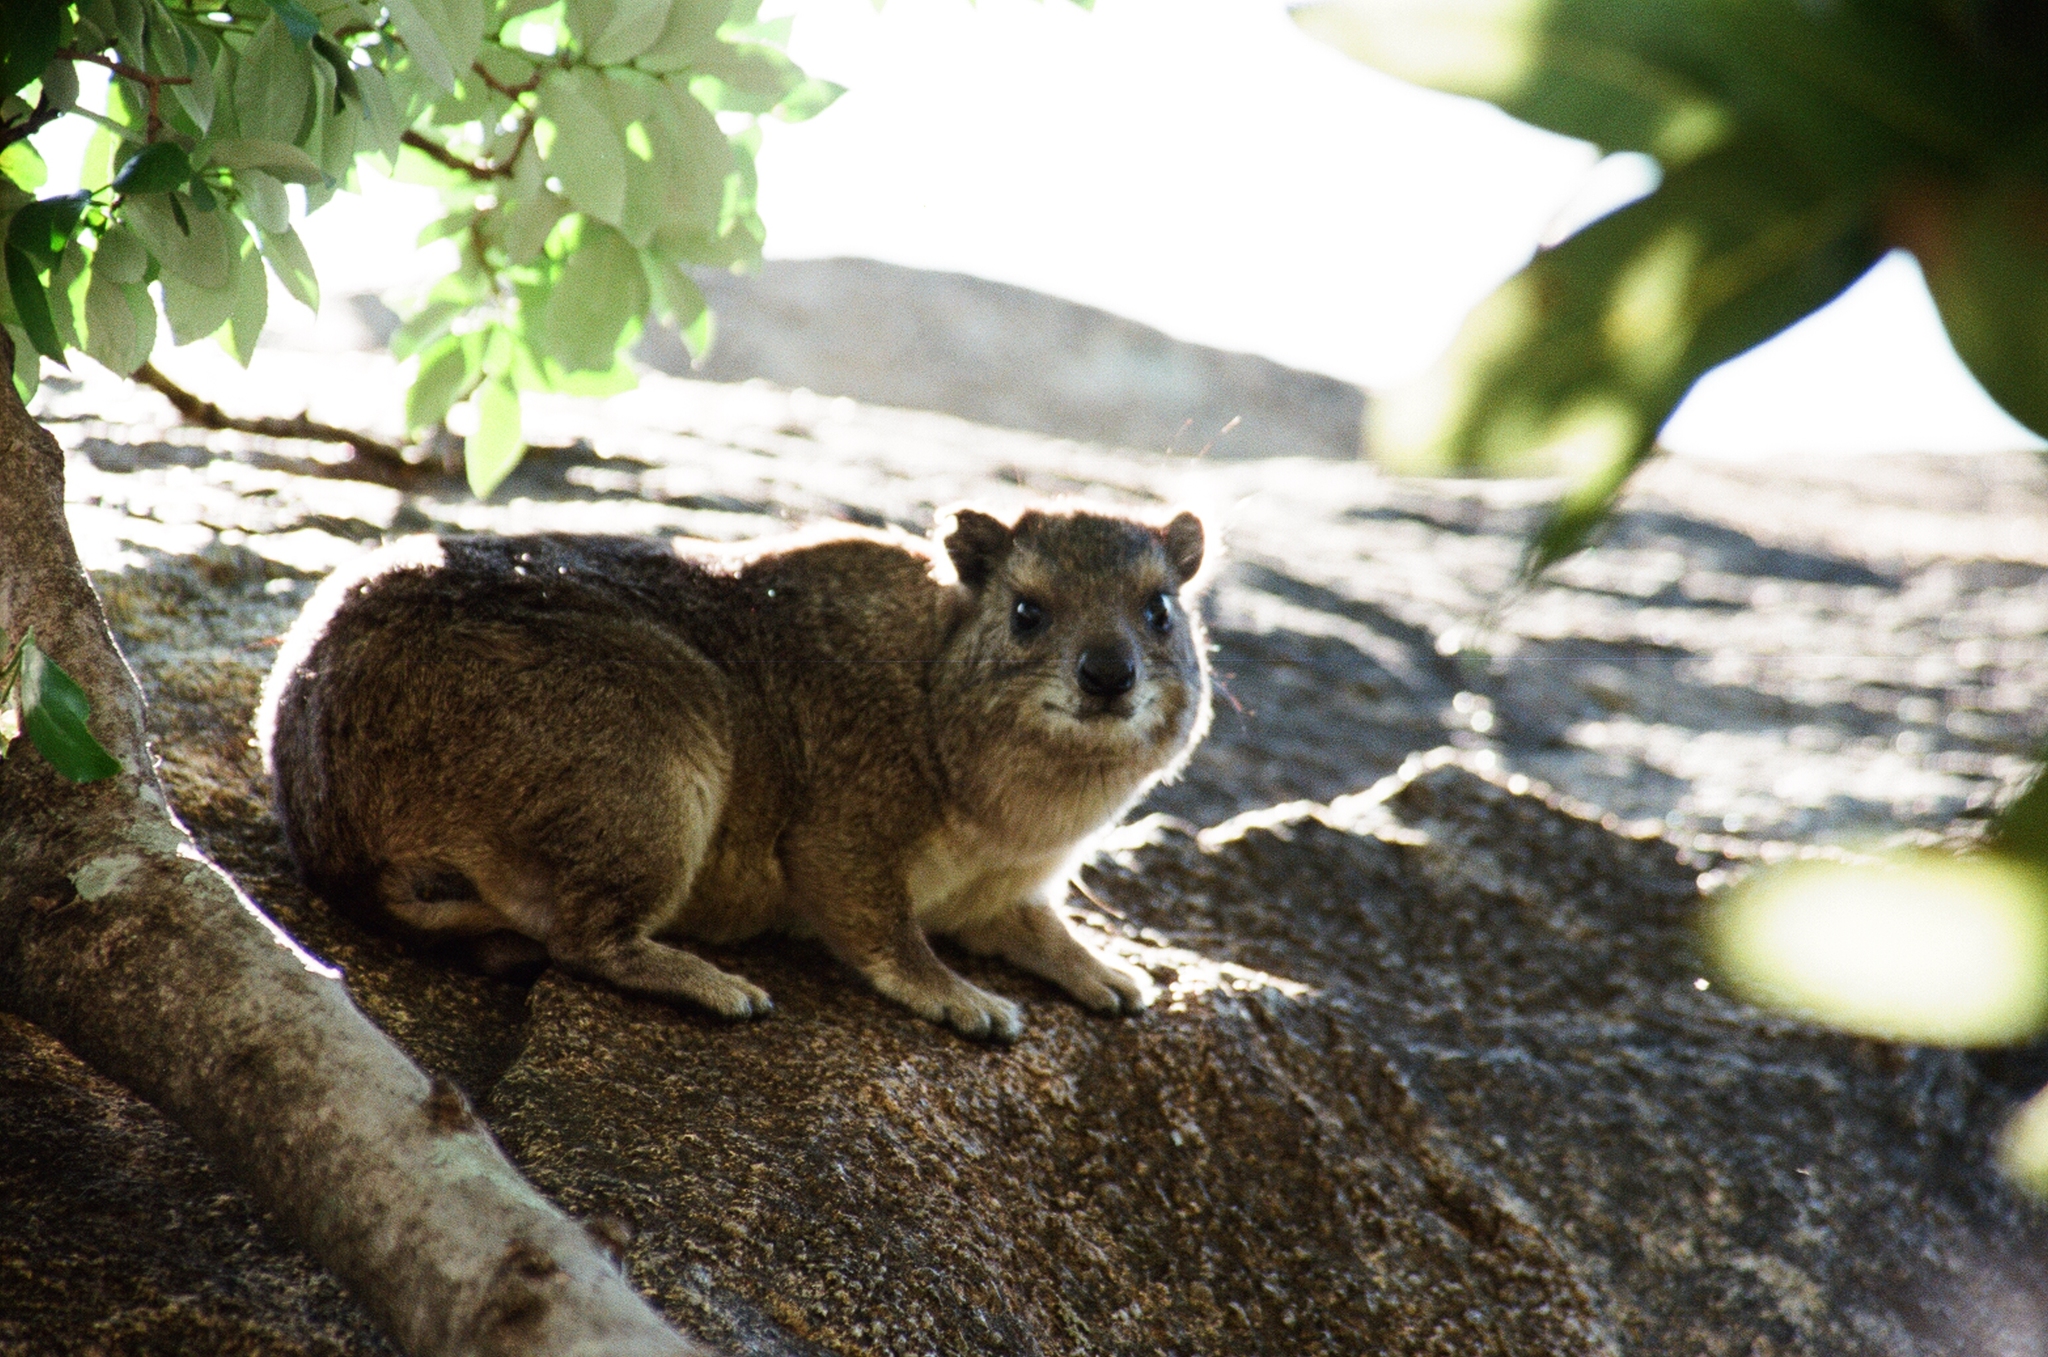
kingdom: Animalia
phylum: Chordata
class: Mammalia
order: Hyracoidea
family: Procaviidae
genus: Procavia
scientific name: Procavia capensis
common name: Rock hyrax
